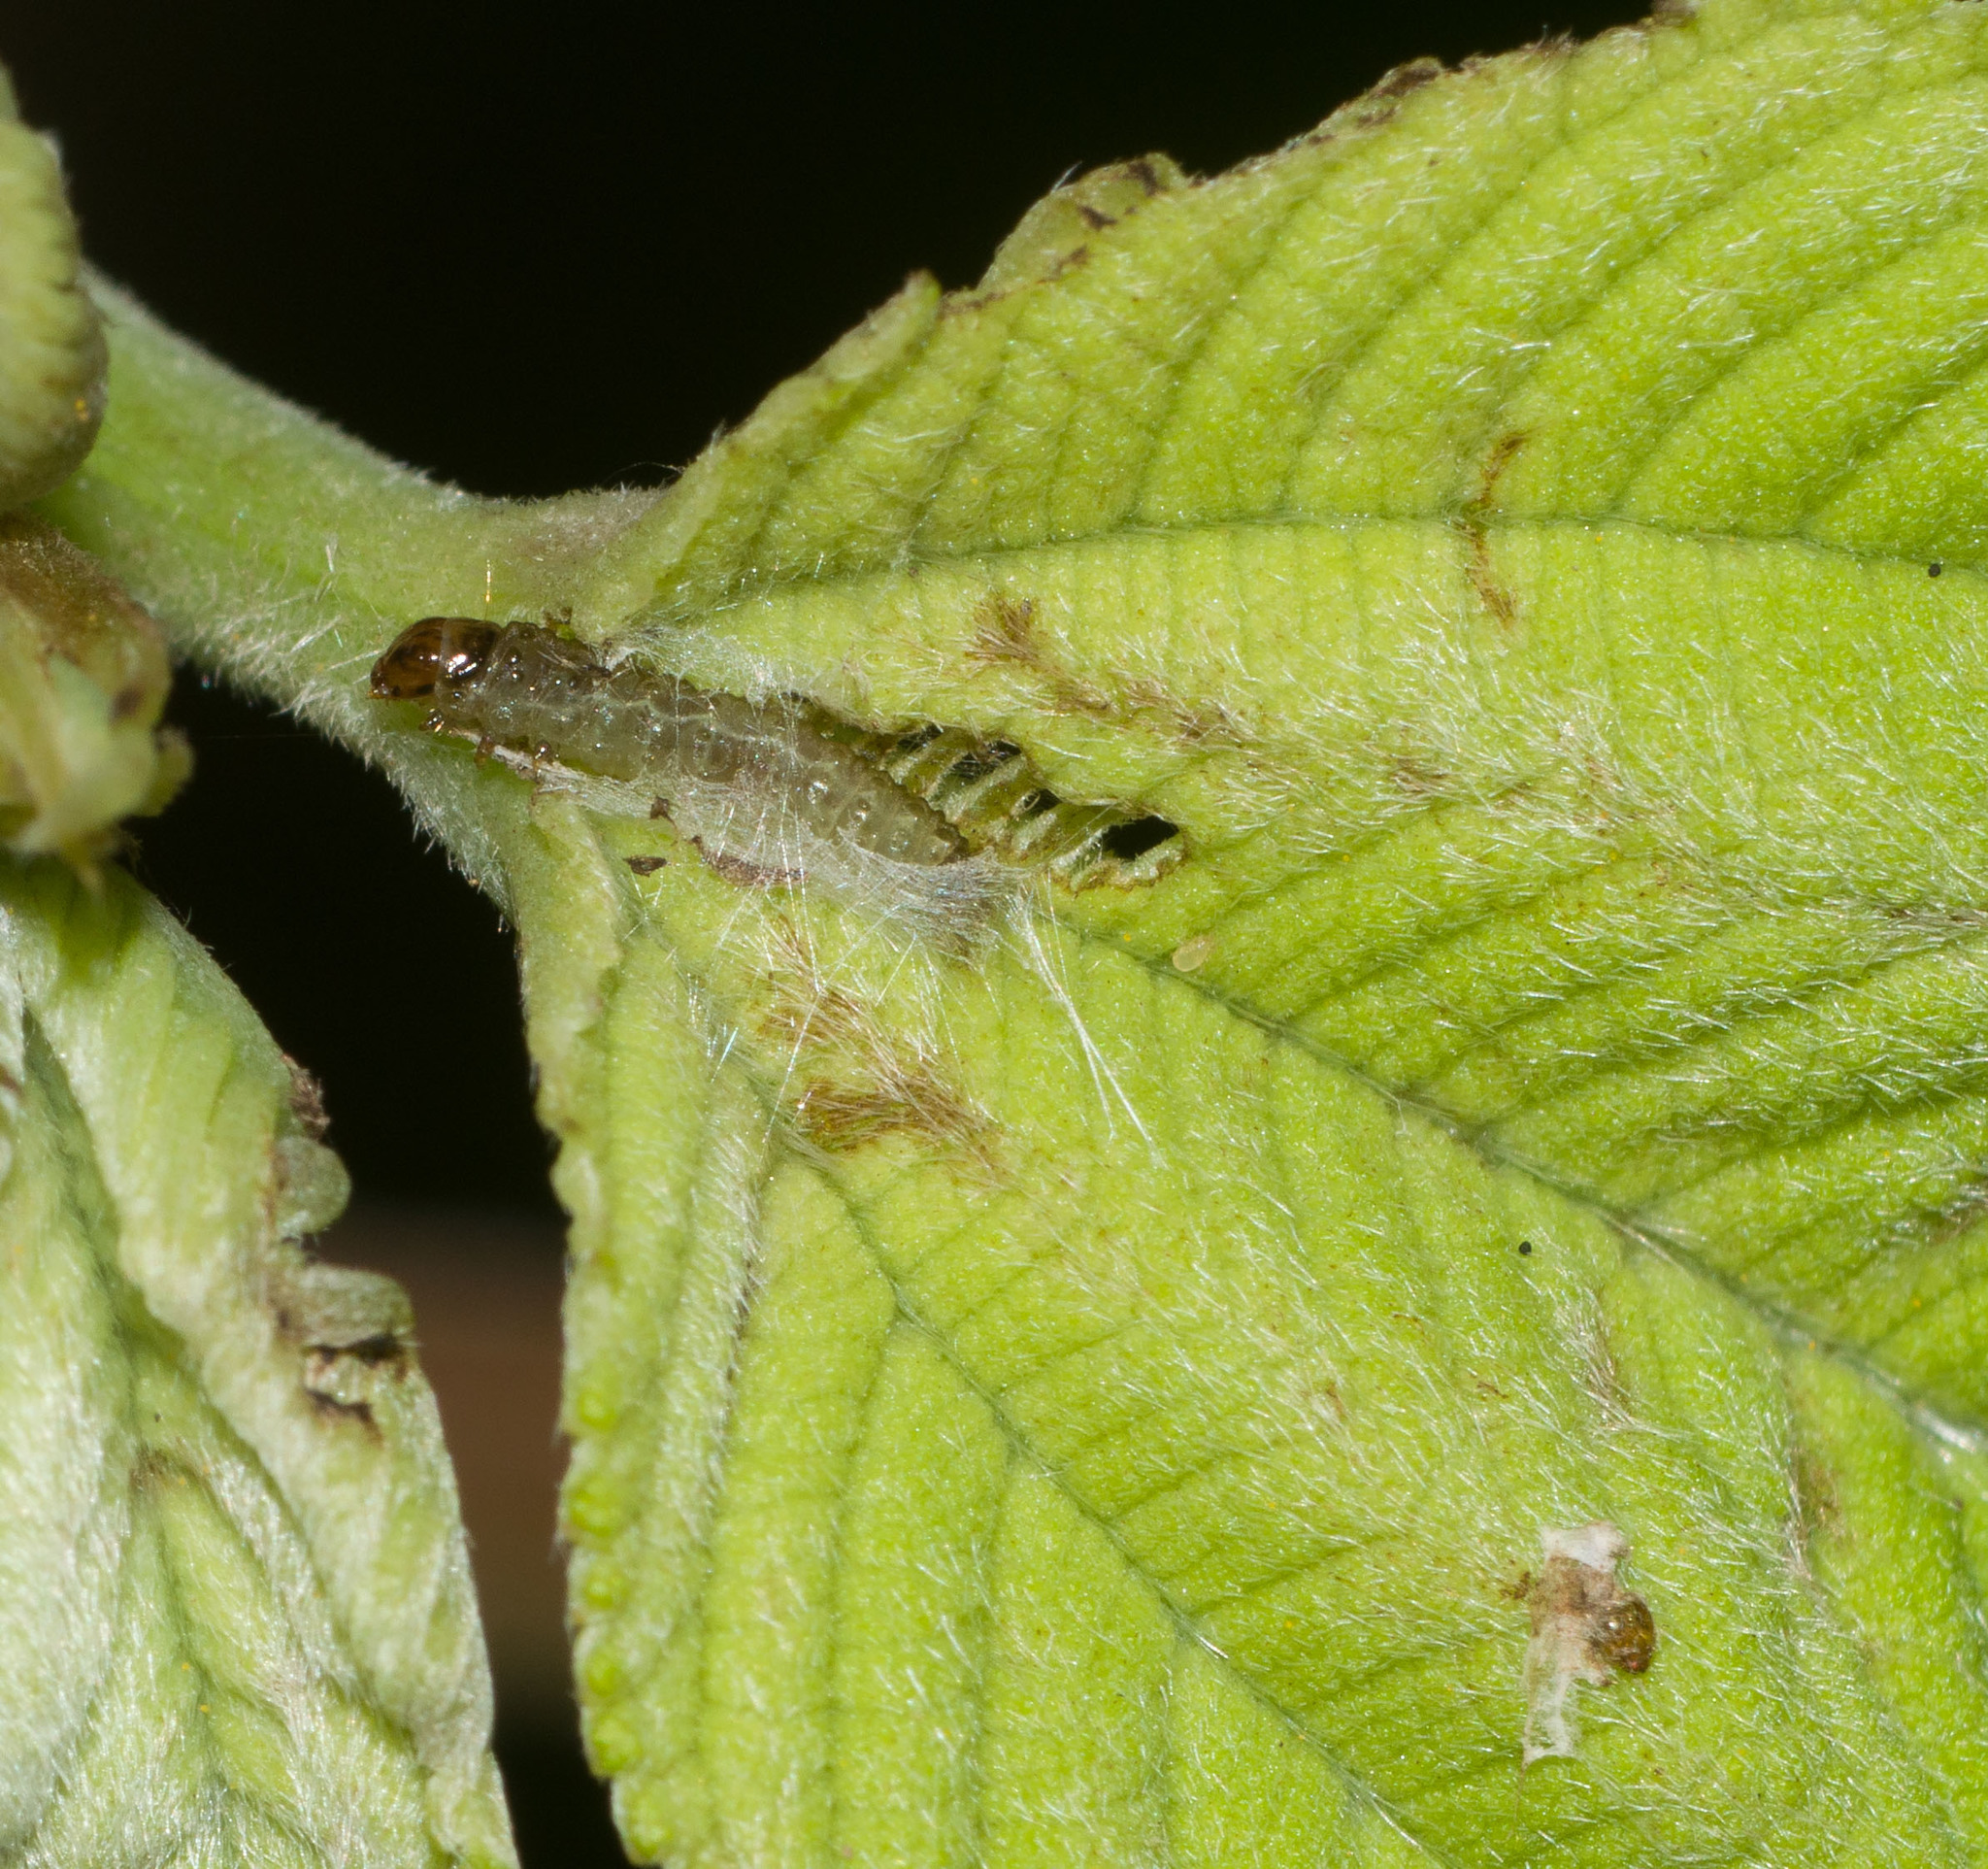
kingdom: Animalia
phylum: Arthropoda
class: Insecta
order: Lepidoptera
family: Tortricidae
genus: Spheterista
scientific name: Spheterista infaustana
